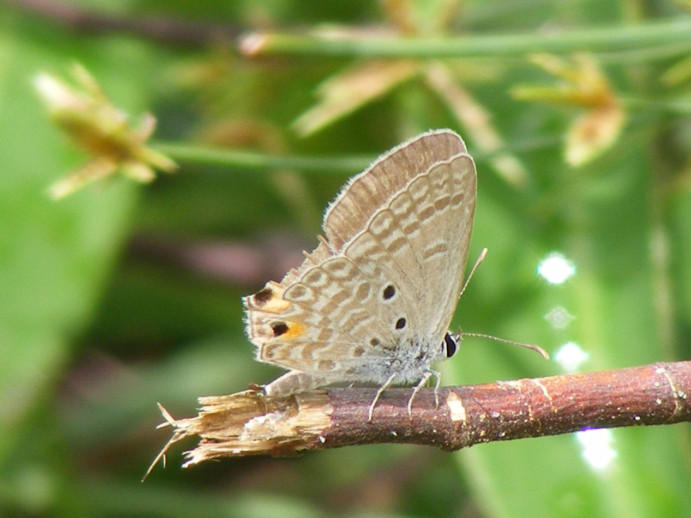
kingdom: Animalia
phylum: Arthropoda
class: Insecta
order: Lepidoptera
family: Lycaenidae
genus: Euchrysops
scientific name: Euchrysops malathana
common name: Common smoky blue
